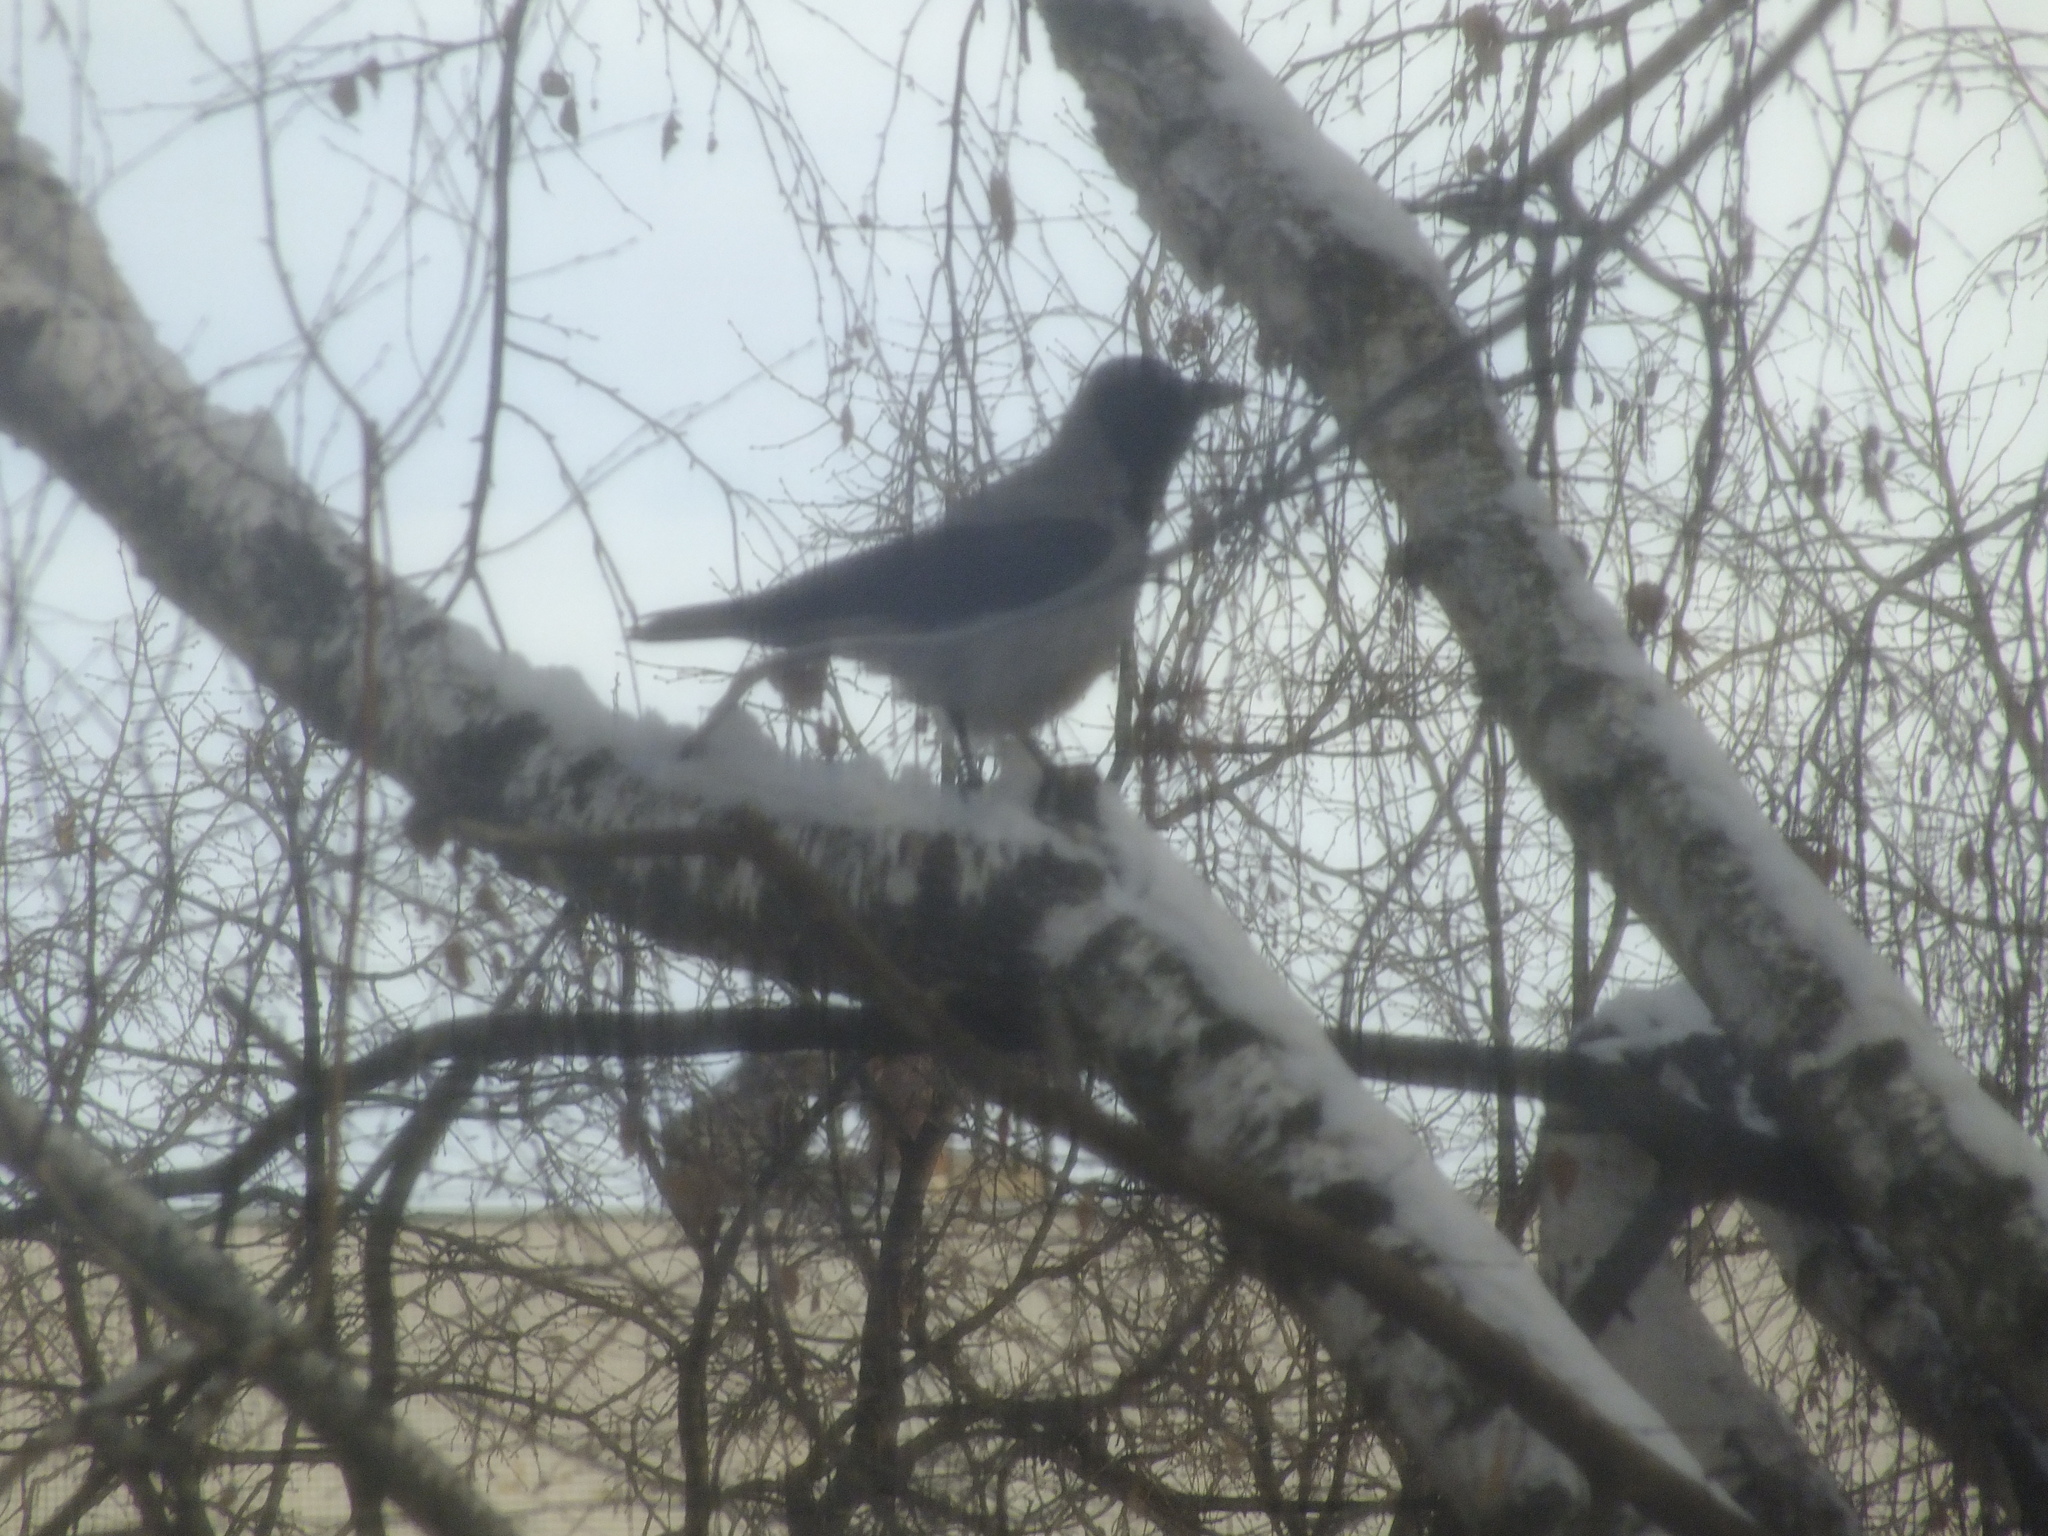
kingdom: Animalia
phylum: Chordata
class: Aves
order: Passeriformes
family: Corvidae
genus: Corvus
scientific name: Corvus cornix
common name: Hooded crow
